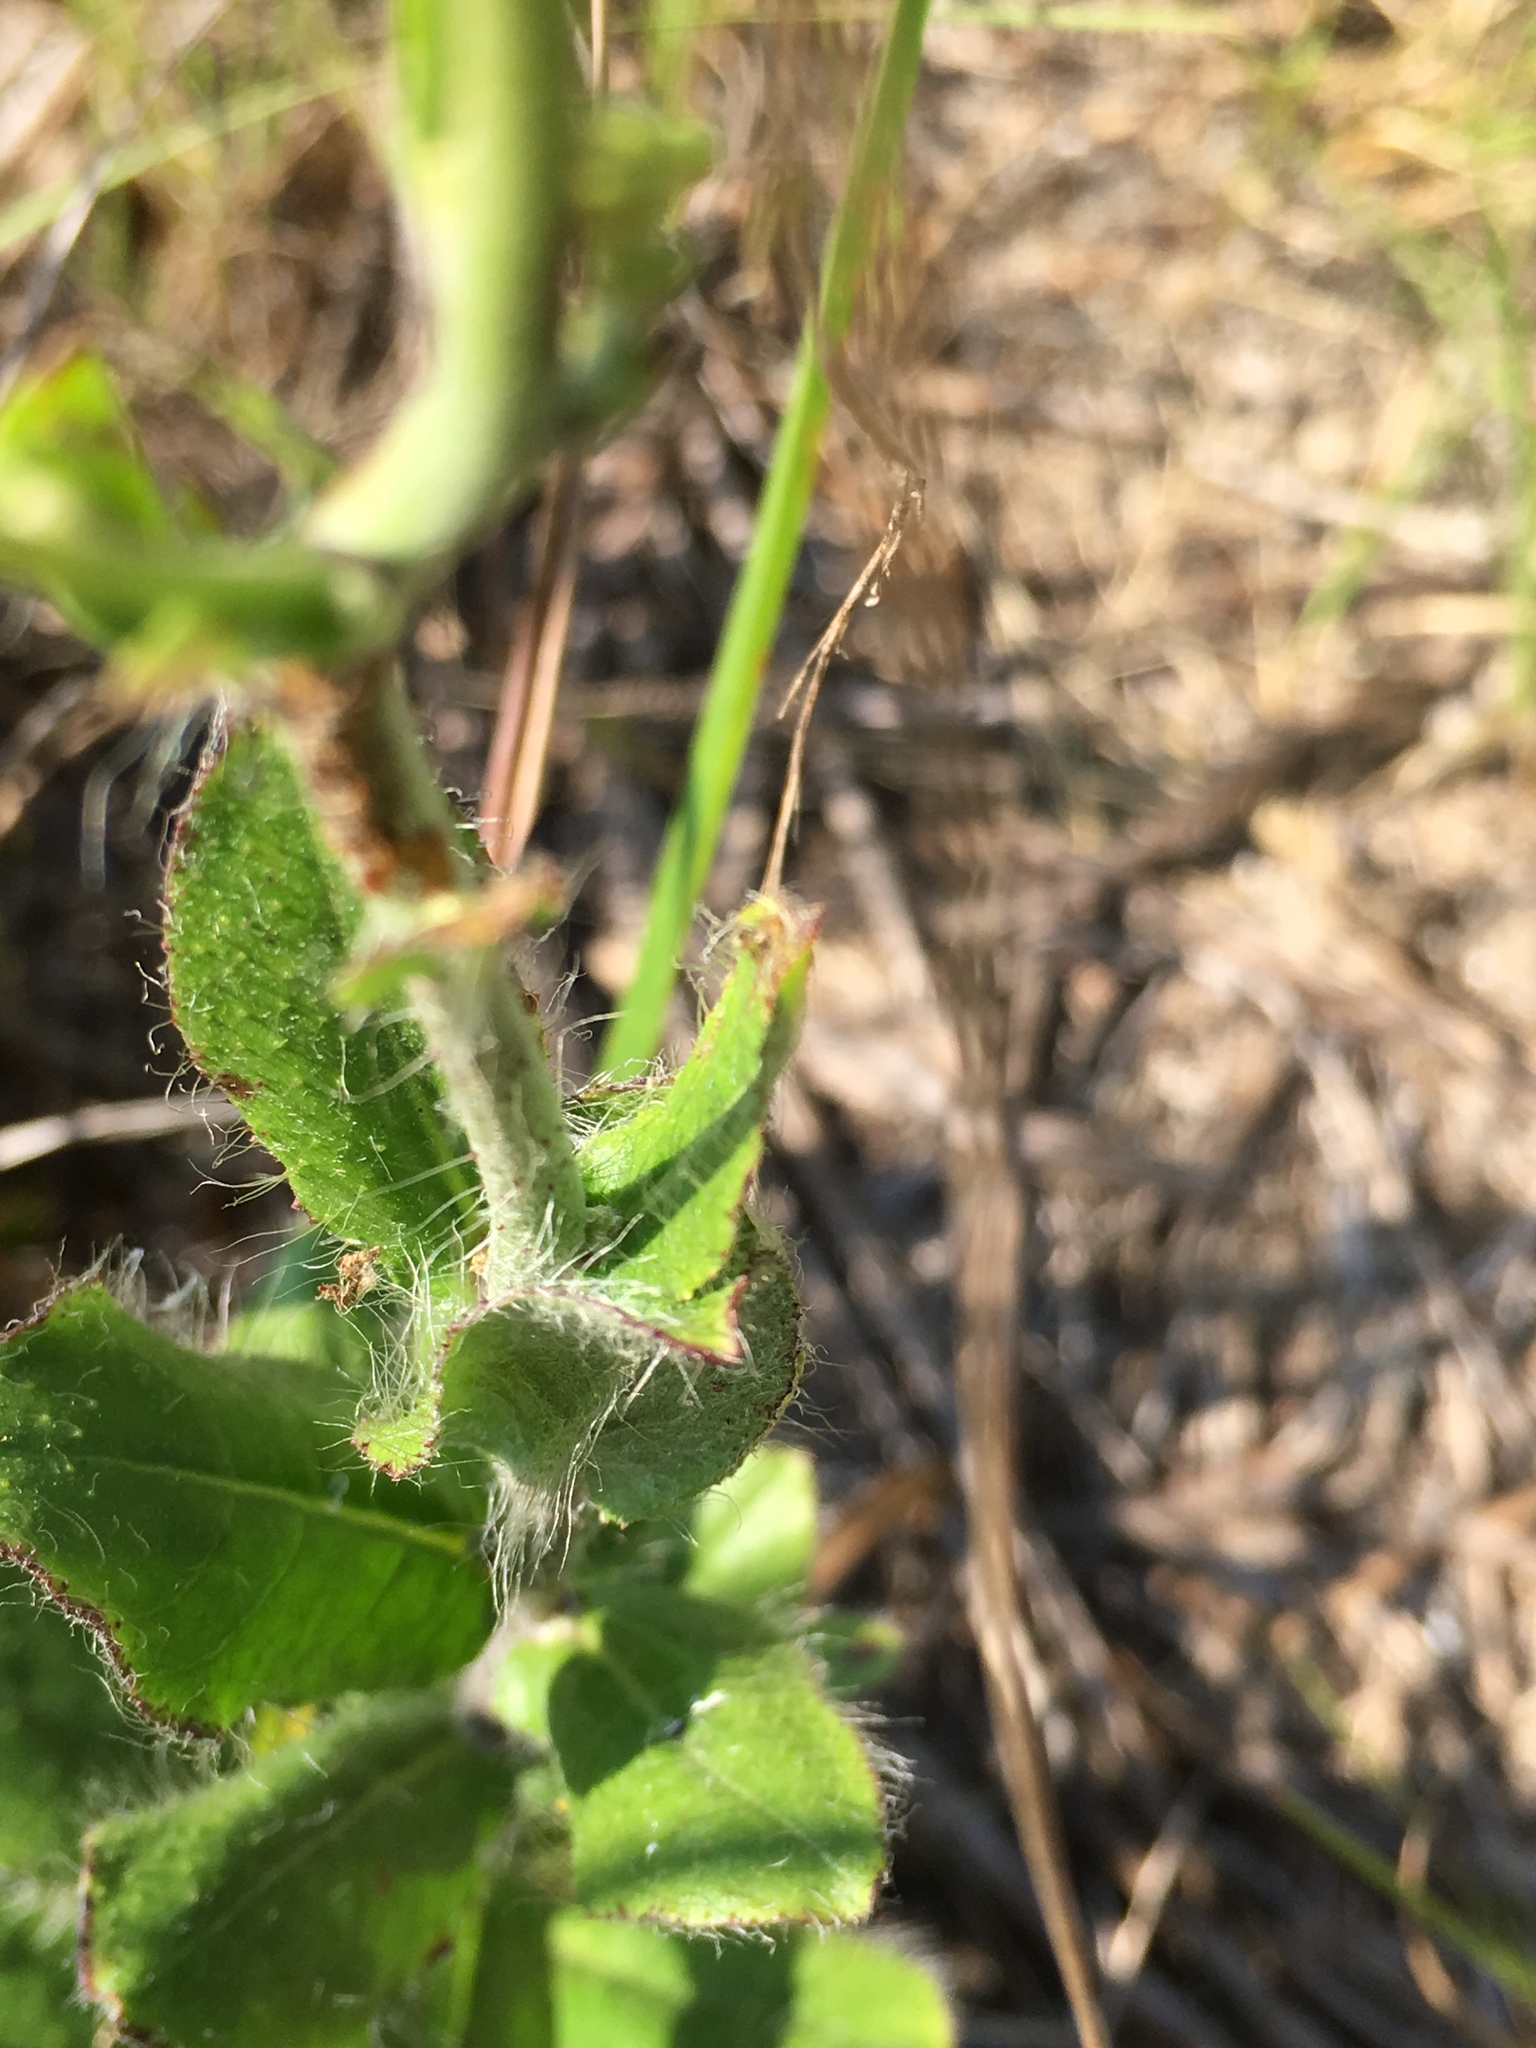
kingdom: Plantae
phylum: Tracheophyta
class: Magnoliopsida
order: Asterales
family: Asteraceae
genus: Hieracium
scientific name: Hieracium gronovii
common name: Beaked hawkweed
